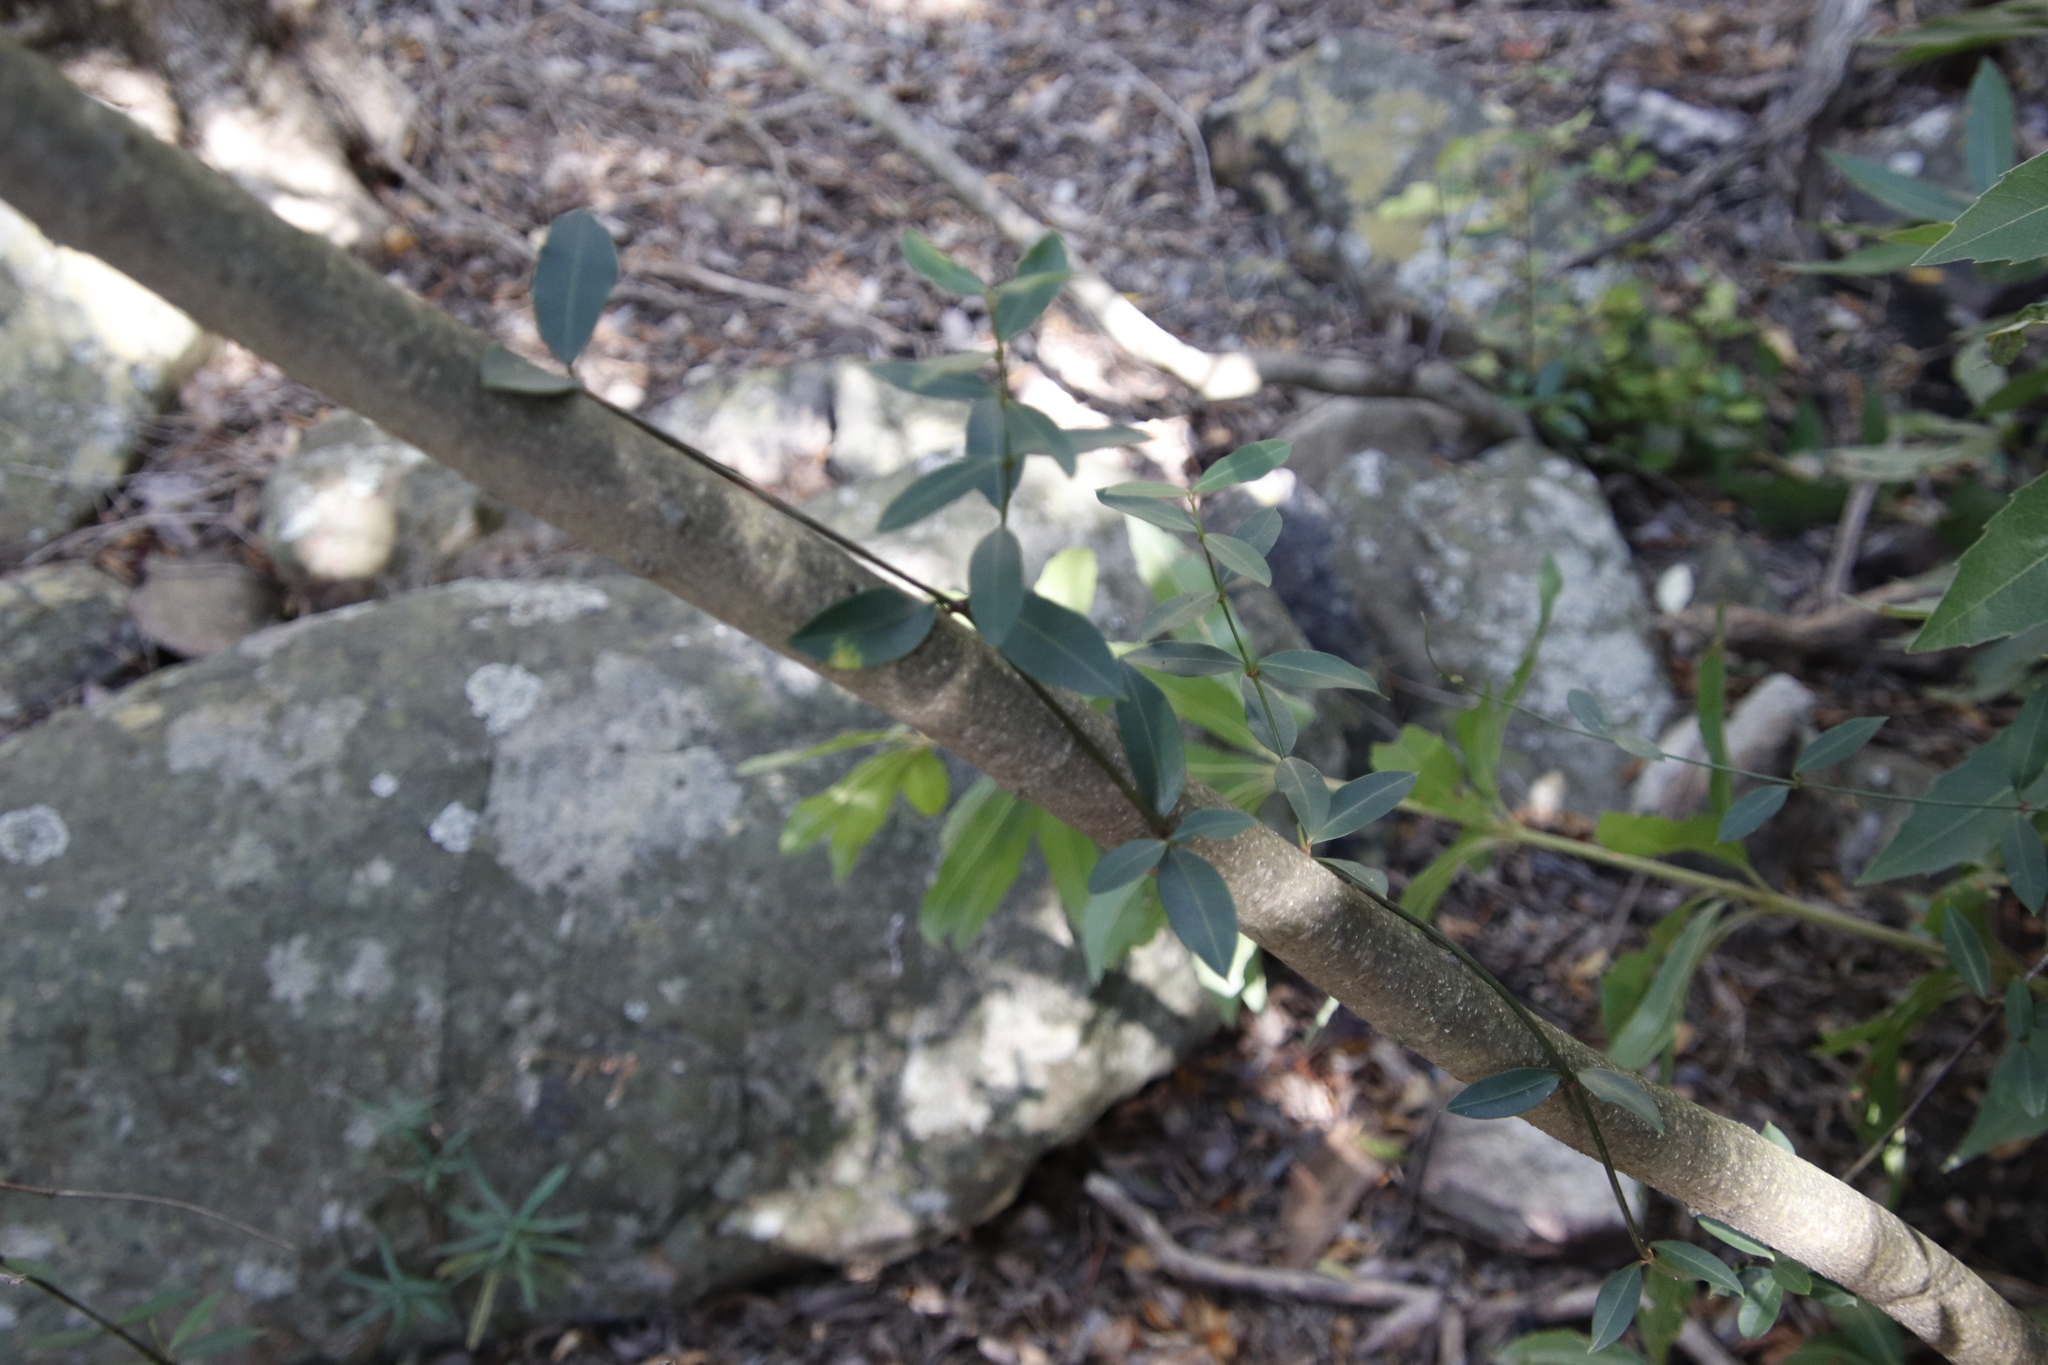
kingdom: Plantae
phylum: Tracheophyta
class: Magnoliopsida
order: Gentianales
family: Apocynaceae
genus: Secamone
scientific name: Secamone alpini
